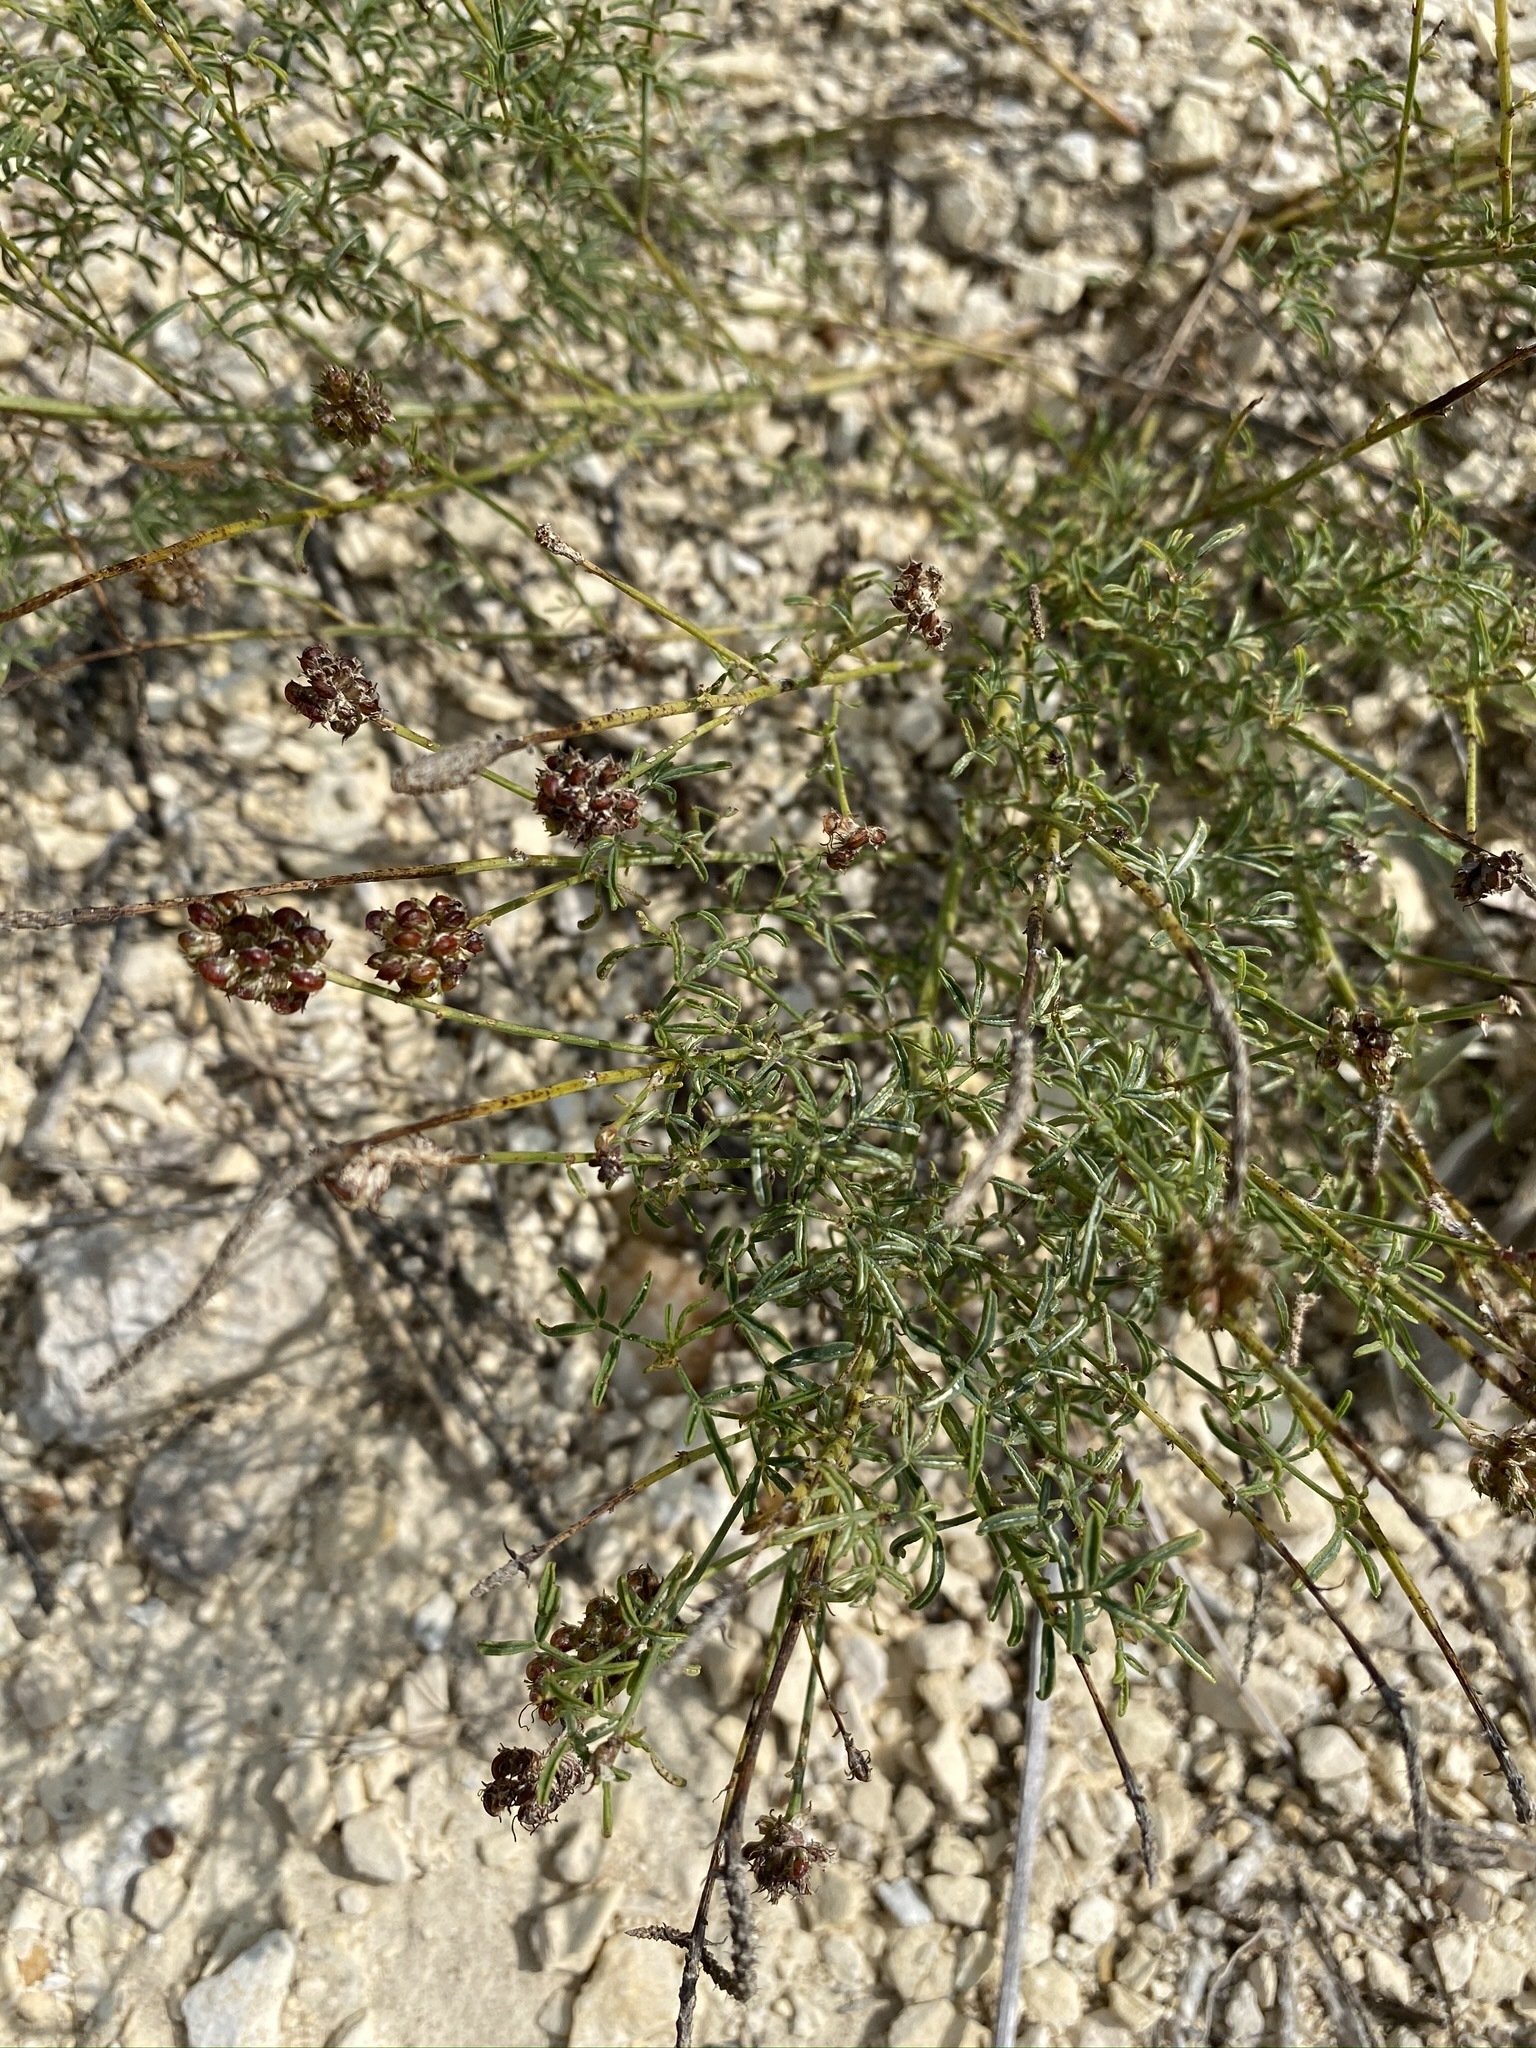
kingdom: Plantae
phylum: Tracheophyta
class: Magnoliopsida
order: Fabales
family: Fabaceae
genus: Dalea
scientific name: Dalea multiflora
